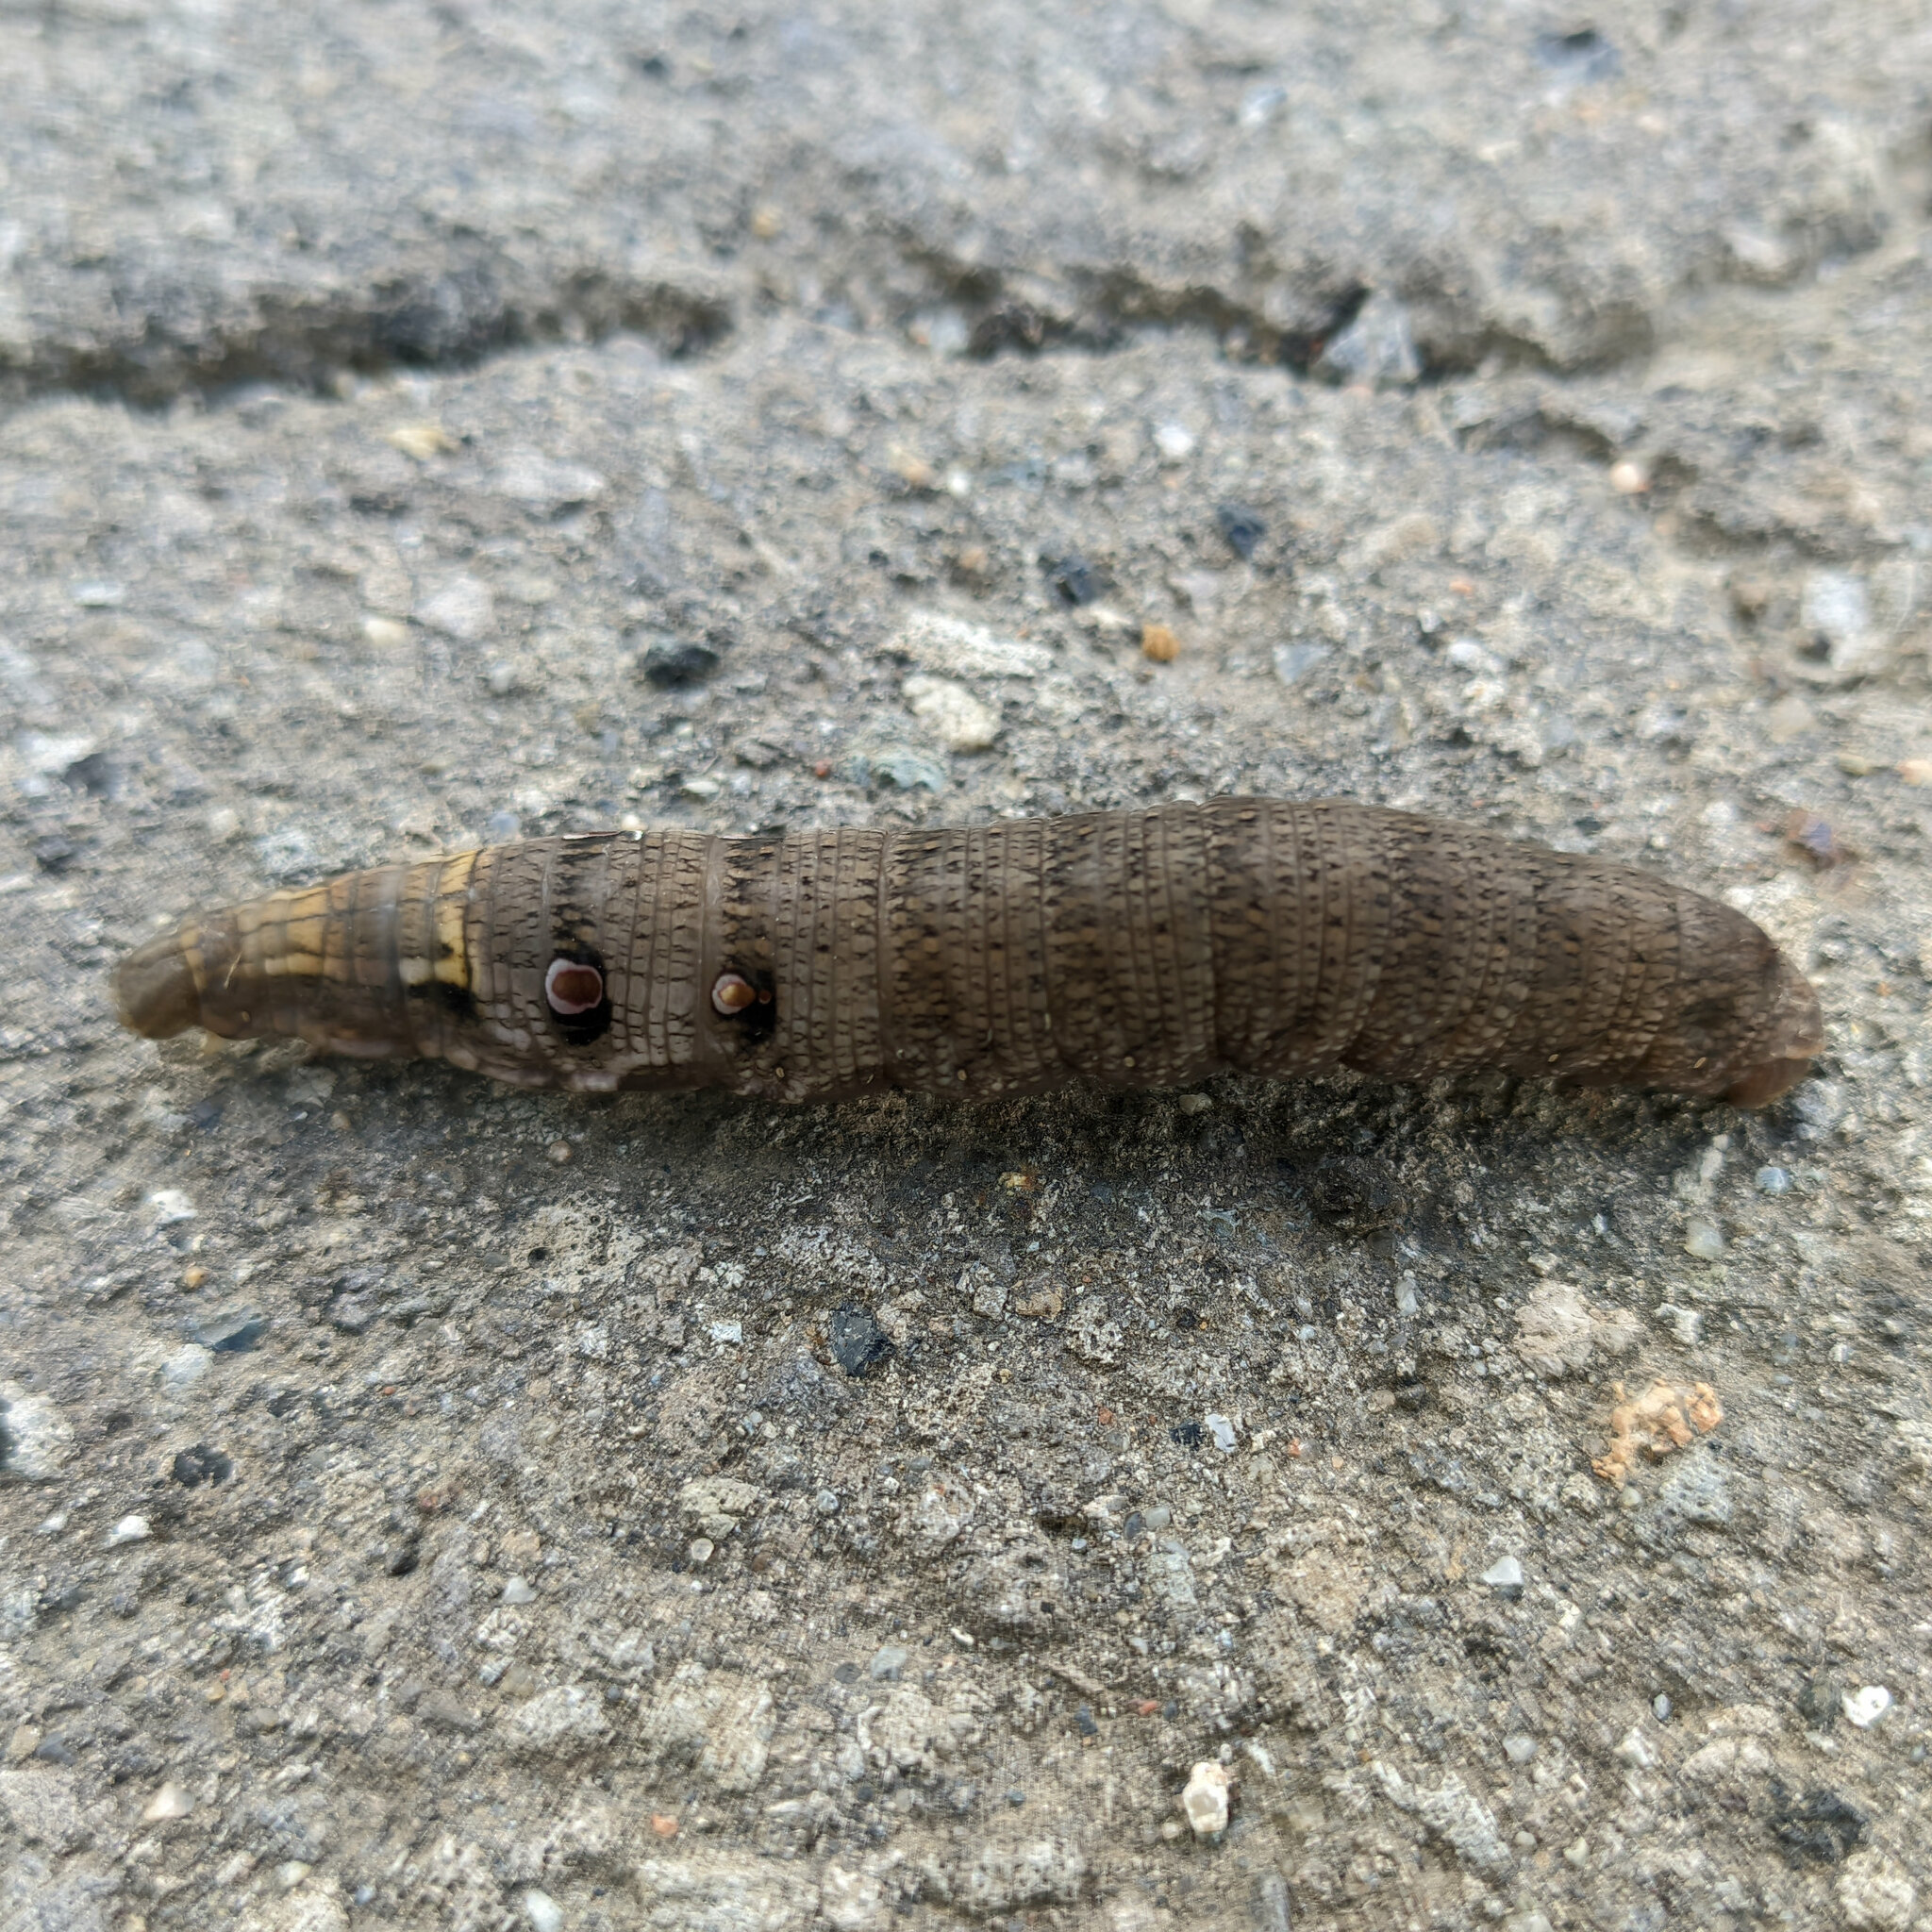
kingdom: Animalia
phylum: Arthropoda
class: Insecta
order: Lepidoptera
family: Sphingidae
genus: Deilephila
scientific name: Deilephila porcellus
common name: Small elephant hawk-moth
